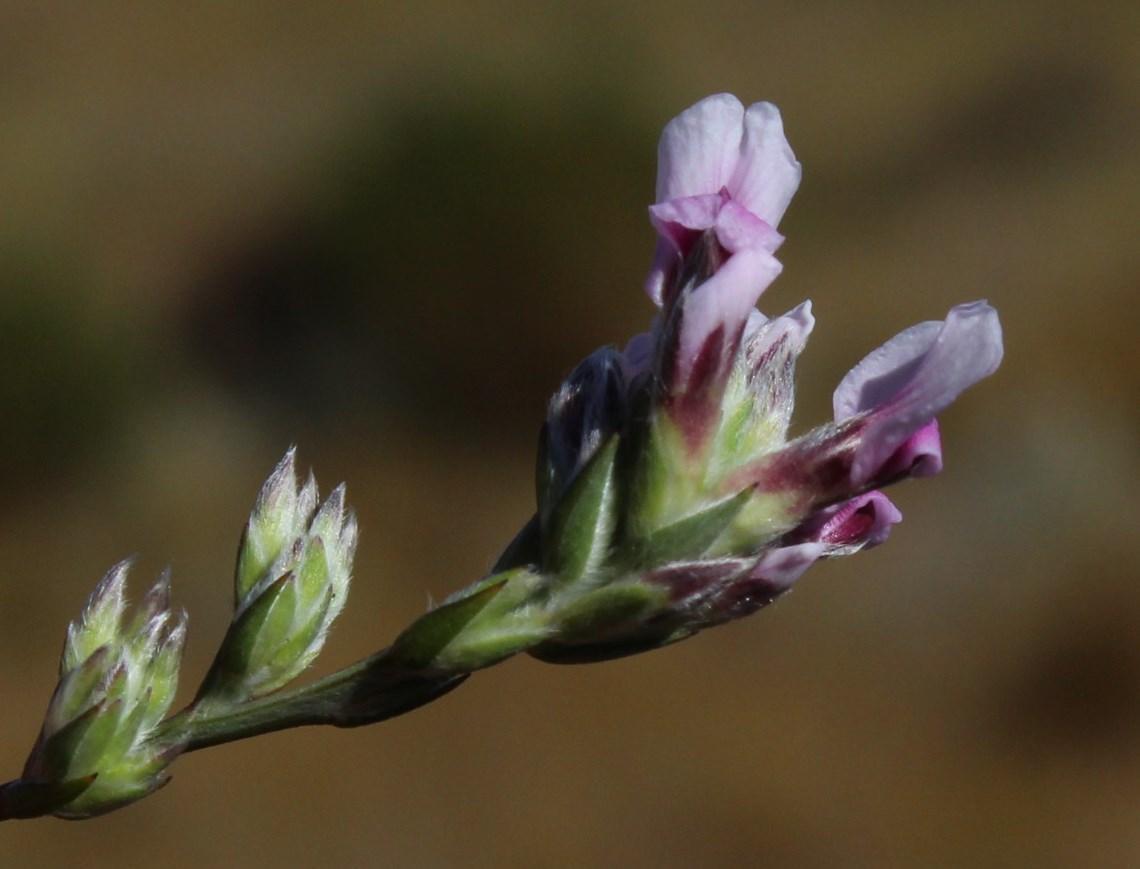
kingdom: Plantae
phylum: Tracheophyta
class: Magnoliopsida
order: Fabales
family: Fabaceae
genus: Amphithalea
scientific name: Amphithalea cedarbergensis
